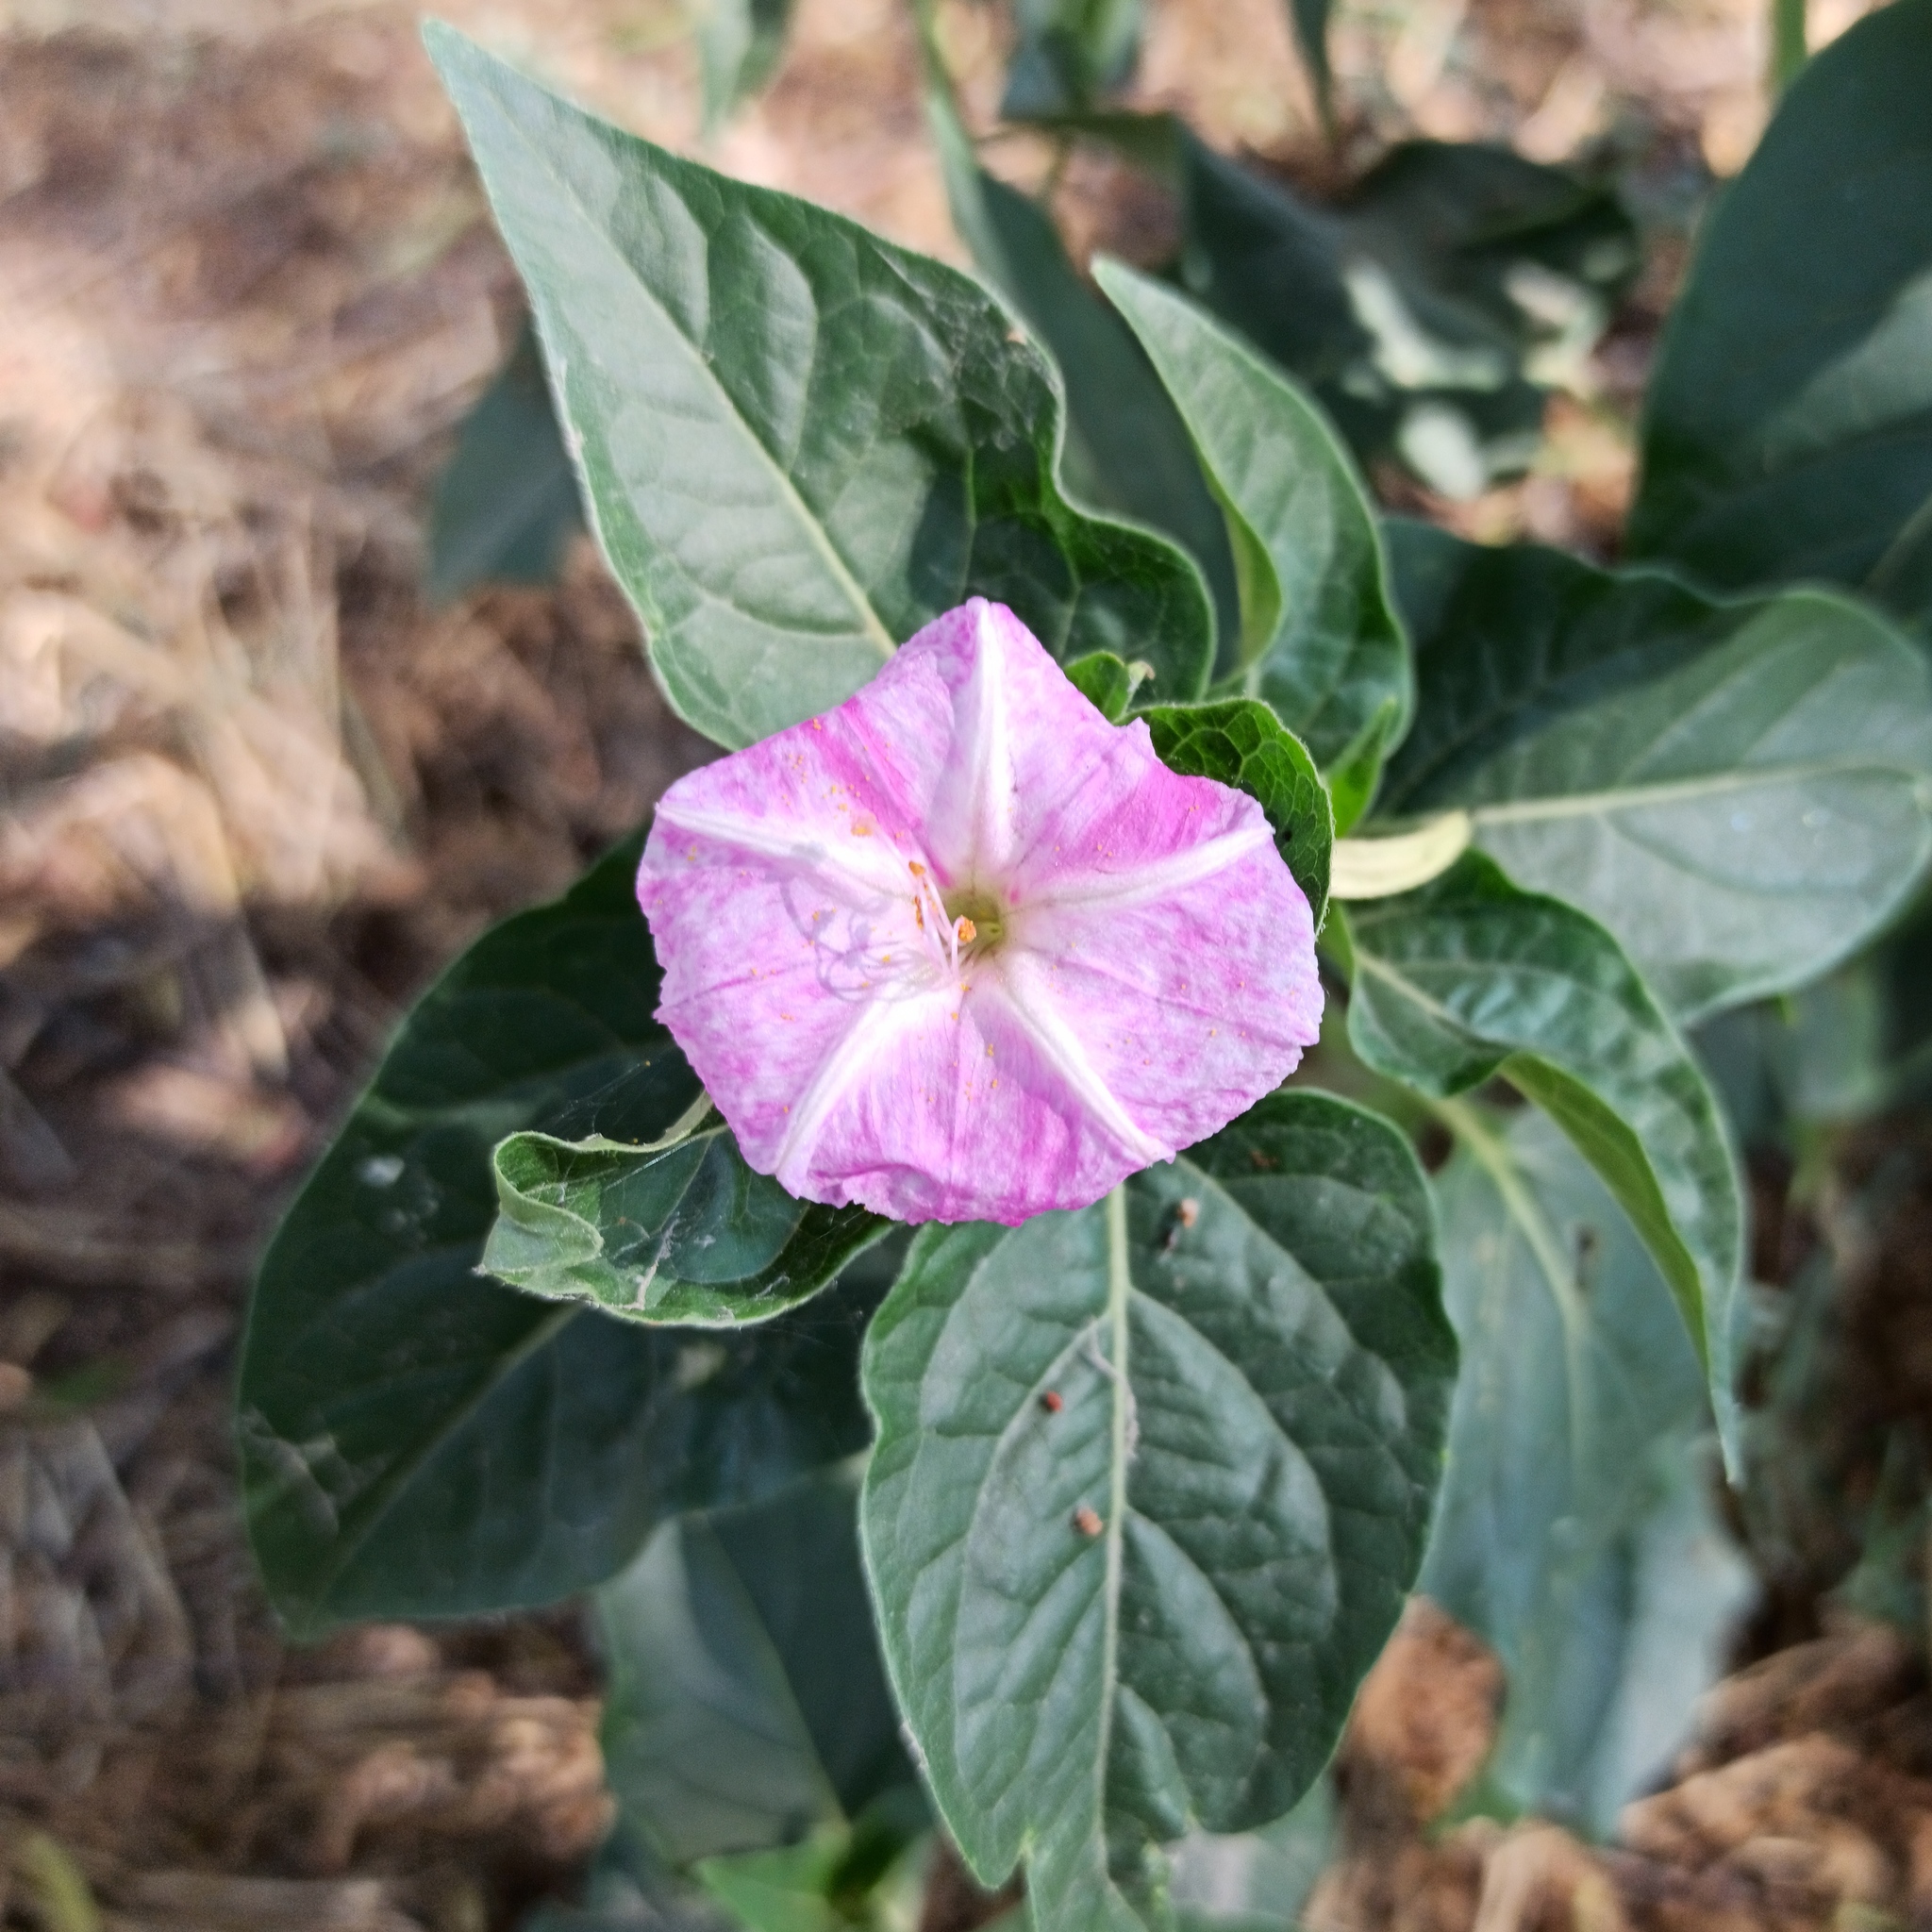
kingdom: Plantae
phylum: Tracheophyta
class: Magnoliopsida
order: Caryophyllales
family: Nyctaginaceae
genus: Mirabilis
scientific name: Mirabilis jalapa
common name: Marvel-of-peru
